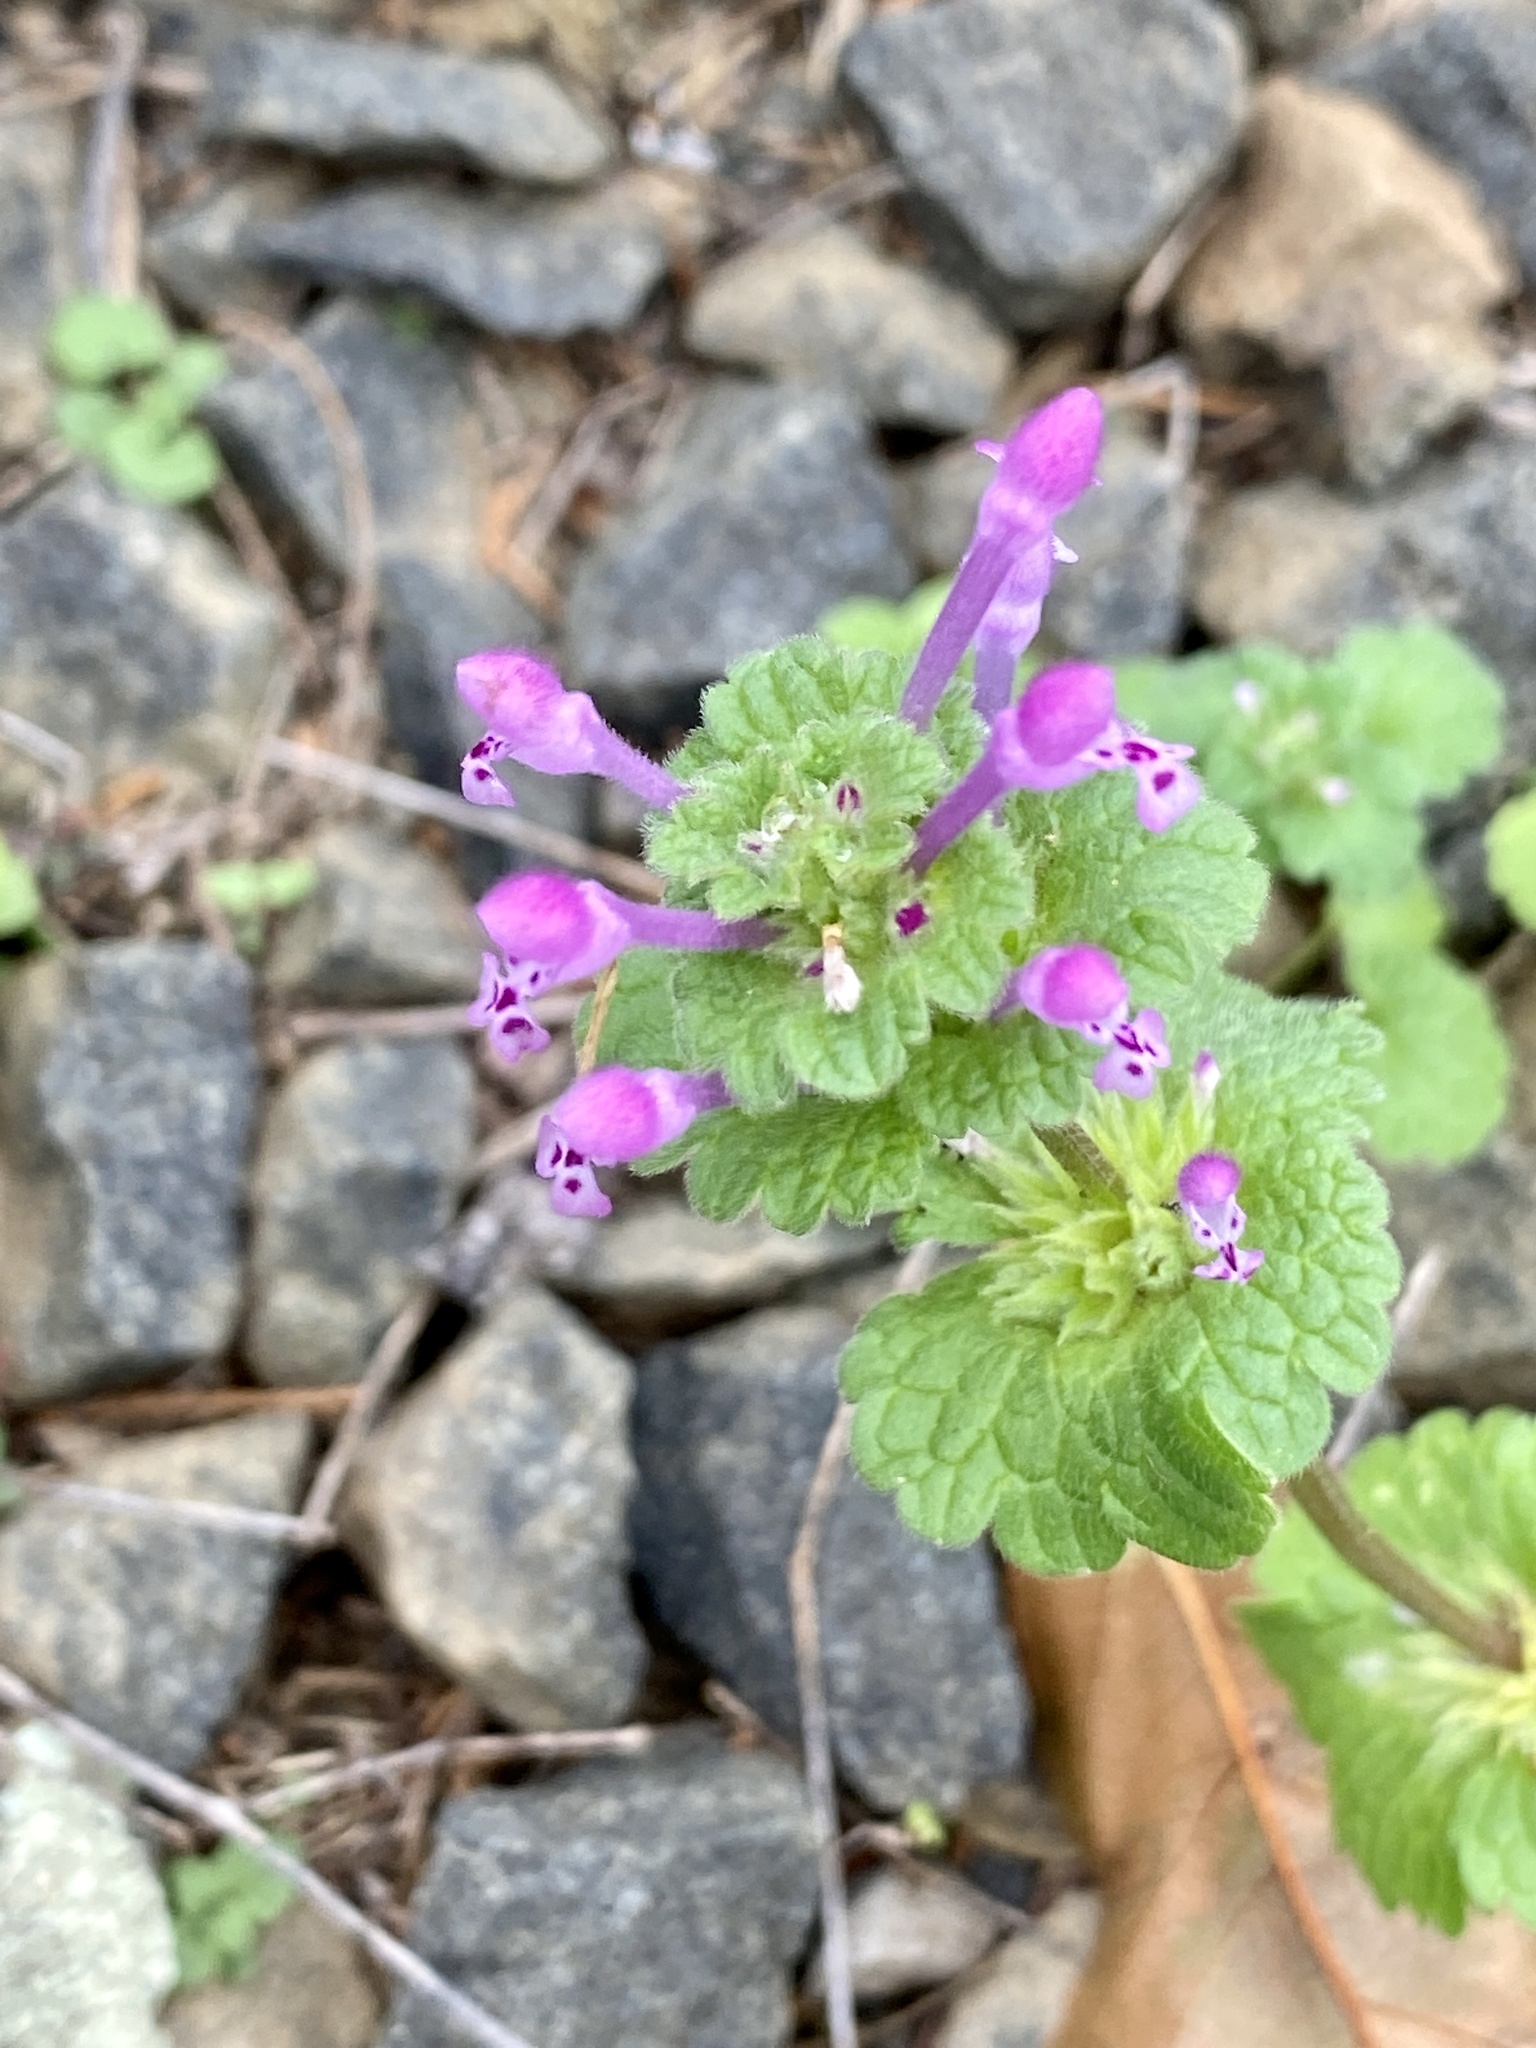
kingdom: Plantae
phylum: Tracheophyta
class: Magnoliopsida
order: Lamiales
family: Lamiaceae
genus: Lamium
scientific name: Lamium amplexicaule
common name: Henbit dead-nettle
